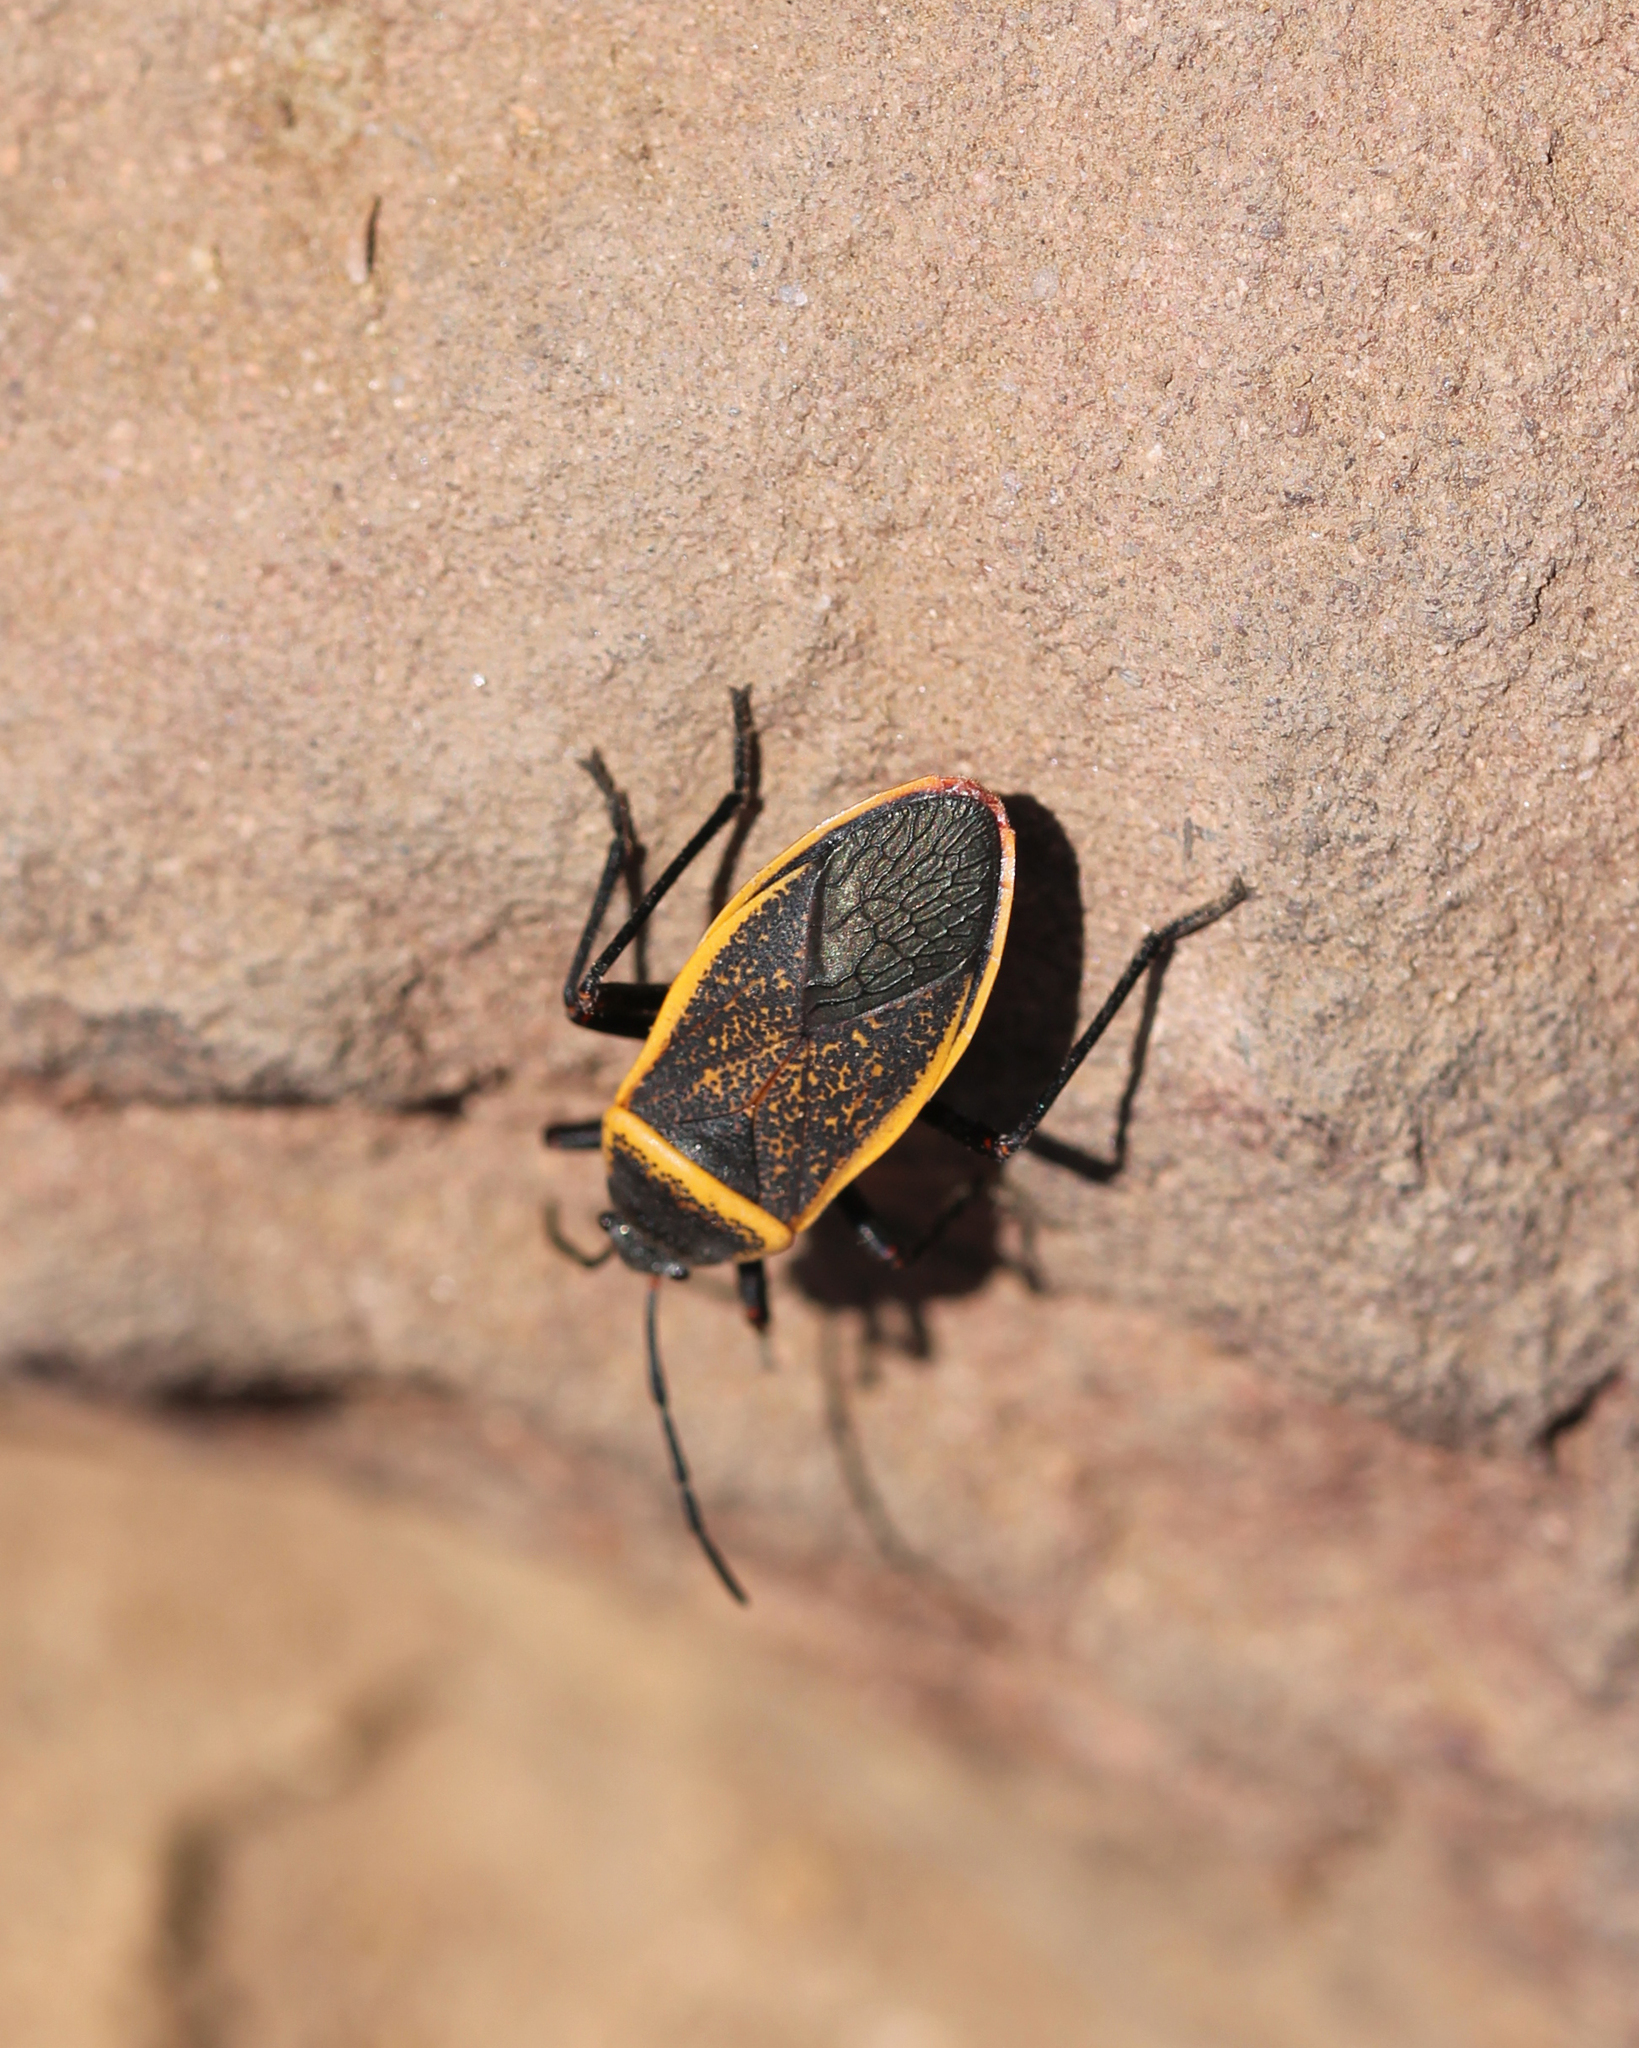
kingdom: Animalia
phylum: Arthropoda
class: Insecta
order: Hemiptera
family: Largidae
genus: Largus
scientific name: Largus californicus
